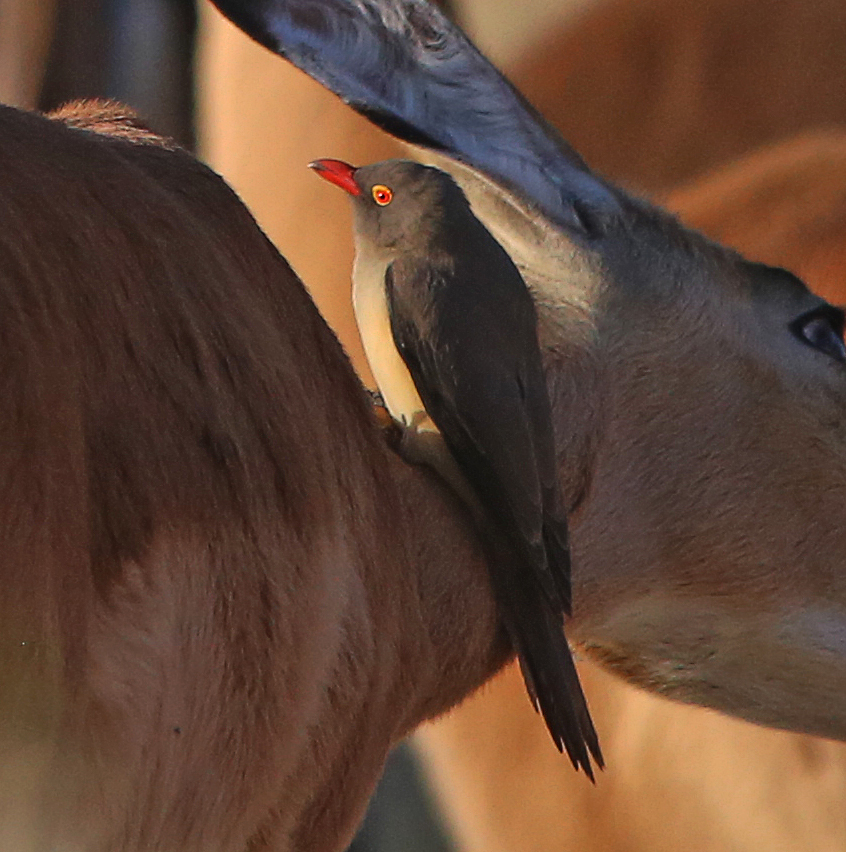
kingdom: Animalia
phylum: Chordata
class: Aves
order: Passeriformes
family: Buphagidae
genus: Buphagus
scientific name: Buphagus erythrorhynchus
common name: Red-billed oxpecker
